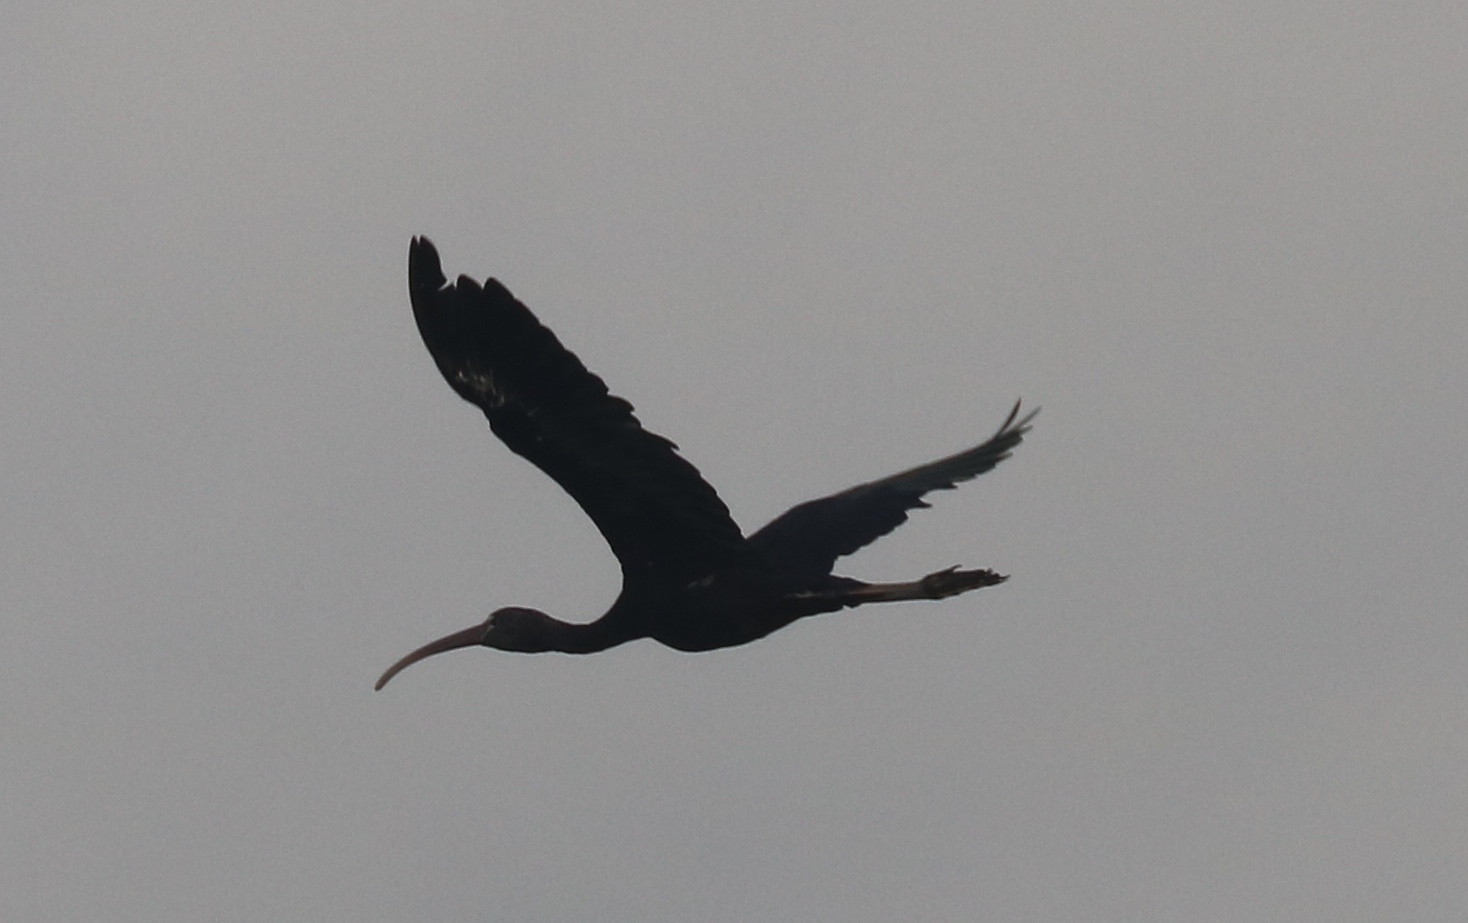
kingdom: Animalia
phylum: Chordata
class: Aves
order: Pelecaniformes
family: Threskiornithidae
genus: Plegadis
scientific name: Plegadis falcinellus
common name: Glossy ibis
